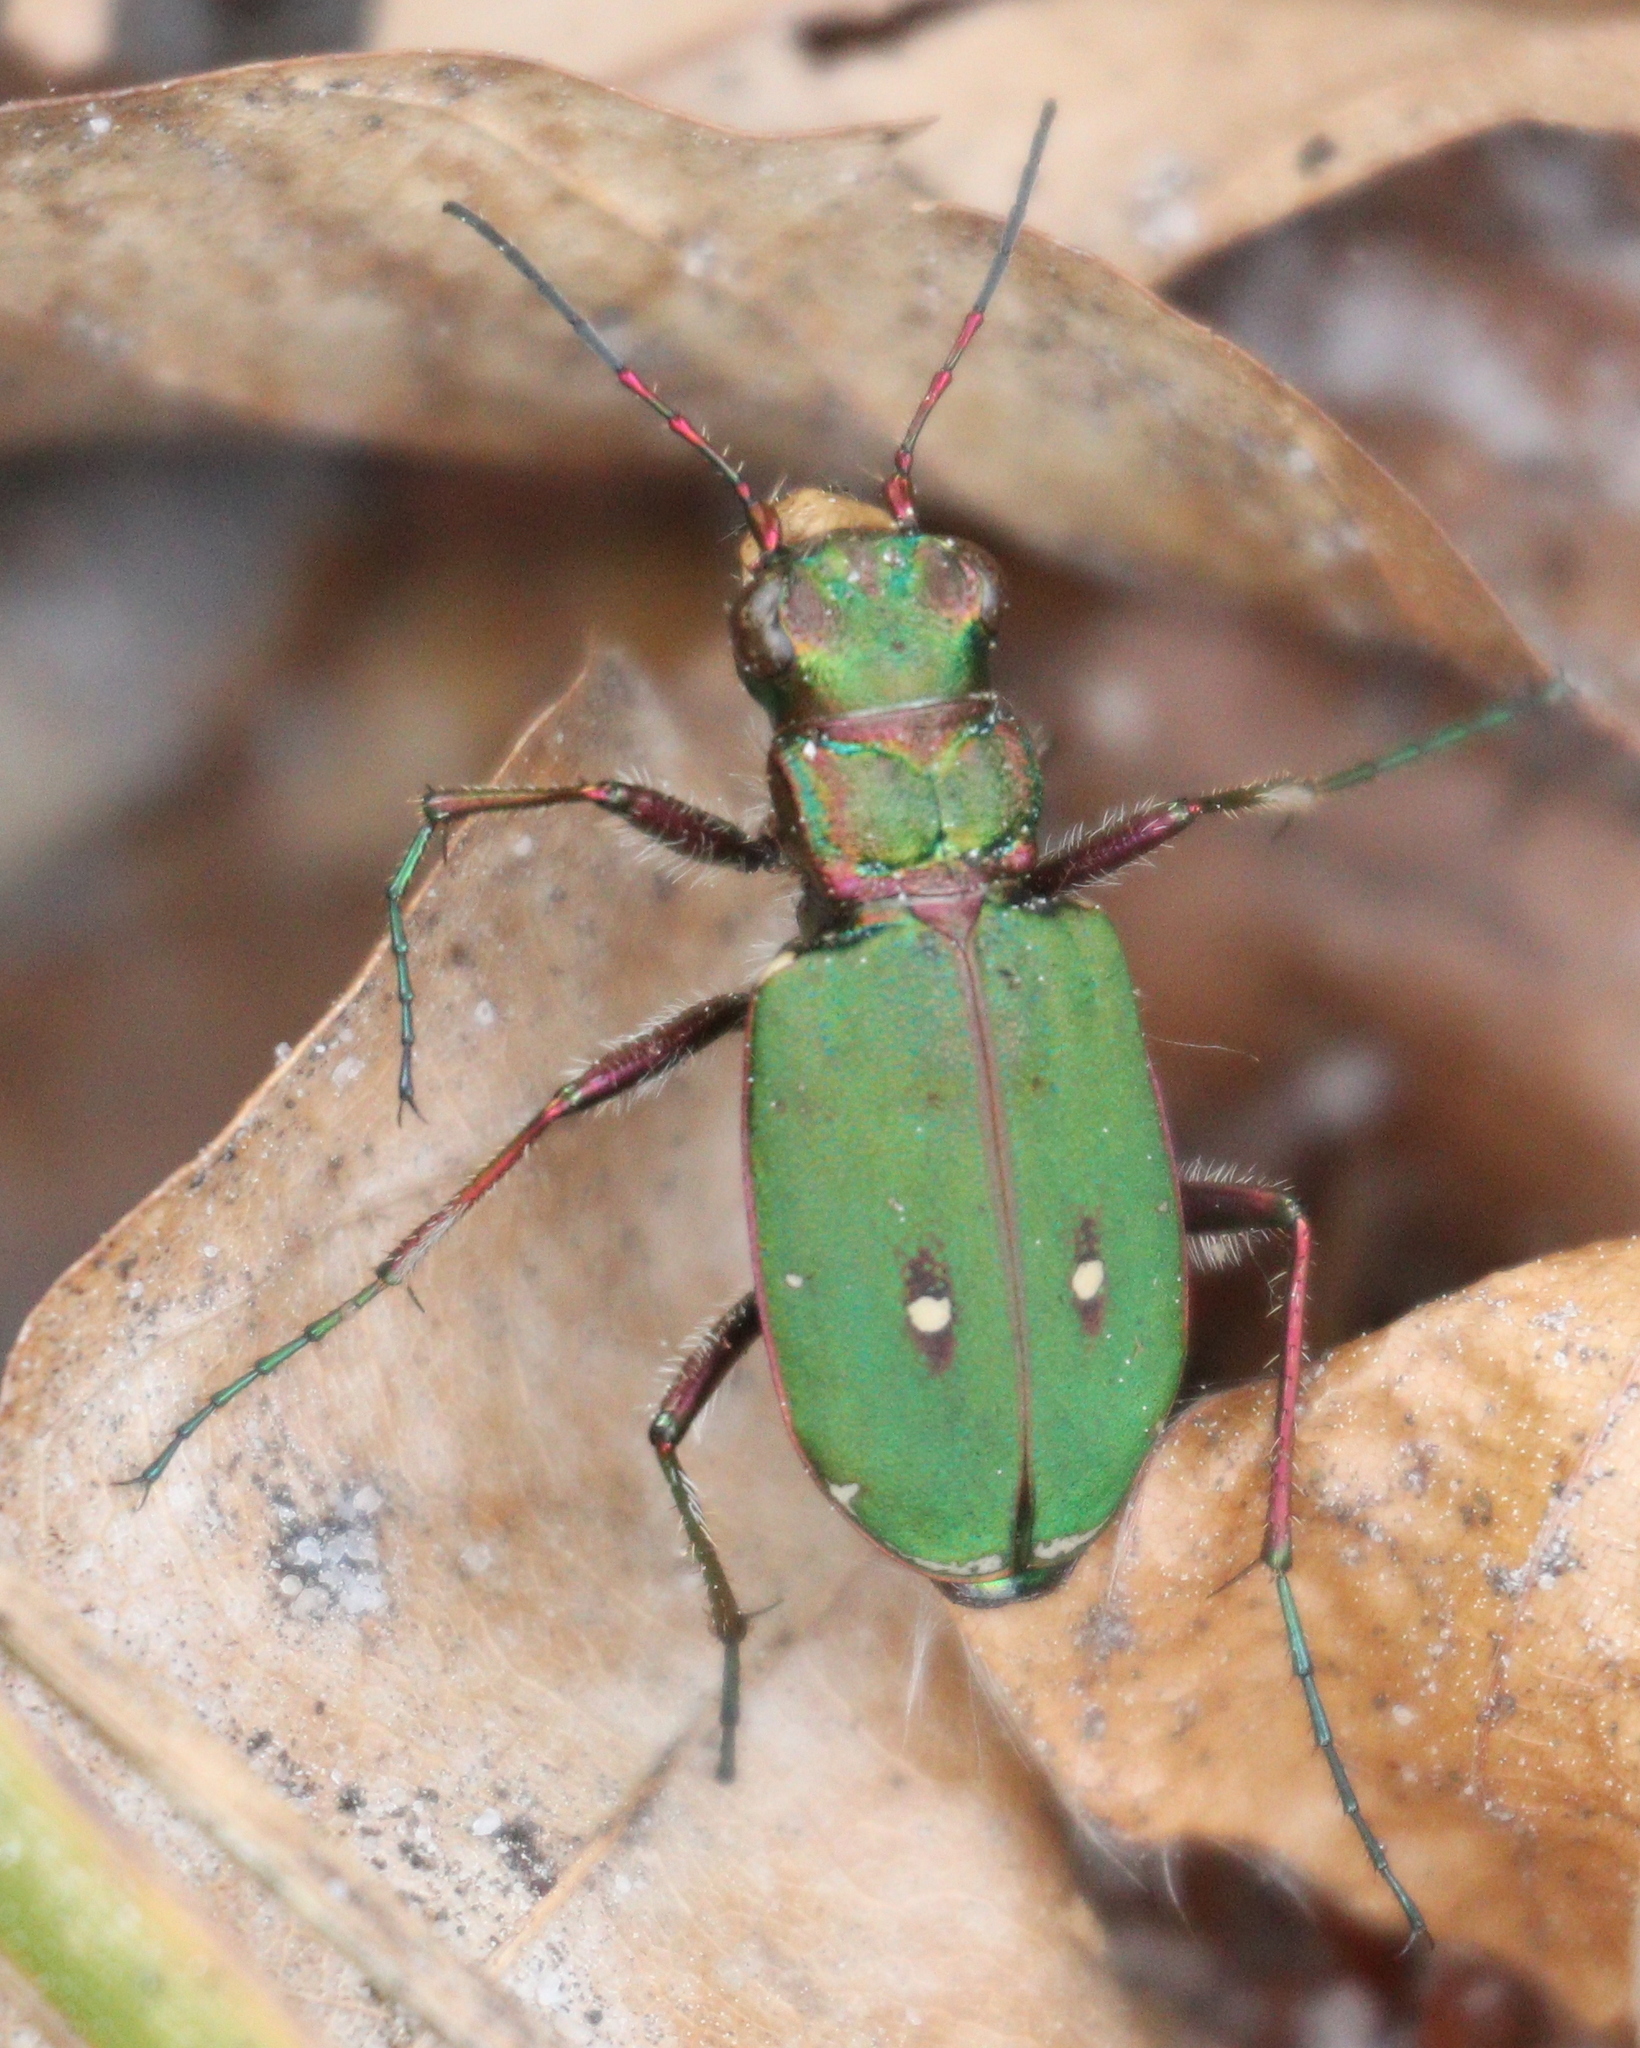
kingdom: Animalia
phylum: Arthropoda
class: Insecta
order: Coleoptera
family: Carabidae
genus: Cicindela
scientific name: Cicindela campestris
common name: Common tiger beetle
